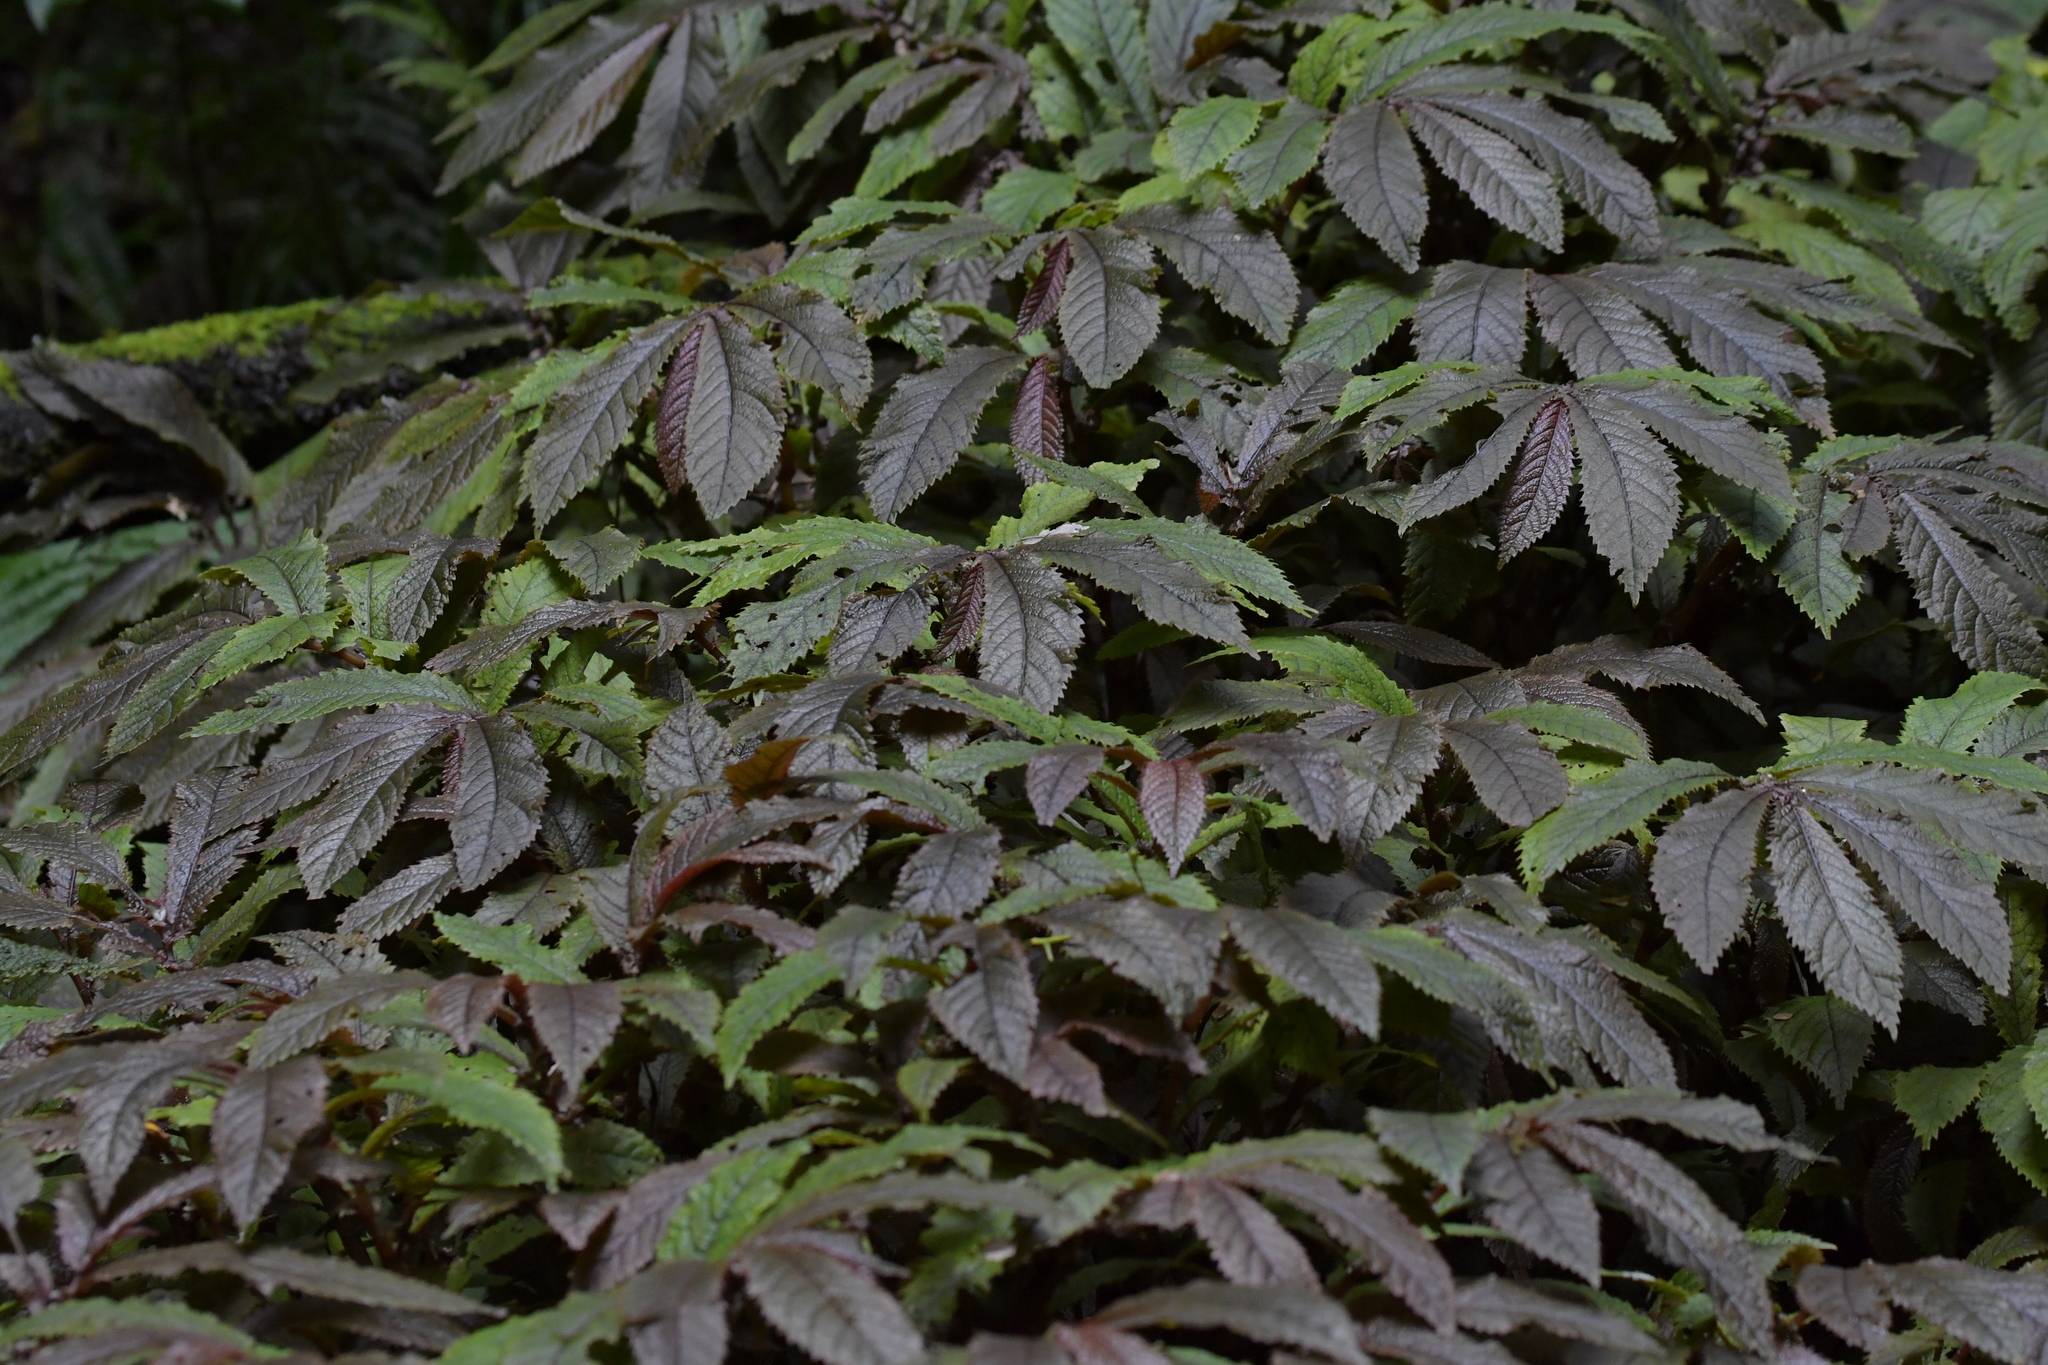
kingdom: Plantae
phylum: Tracheophyta
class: Magnoliopsida
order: Rosales
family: Urticaceae
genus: Elatostema
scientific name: Elatostema rugosum
